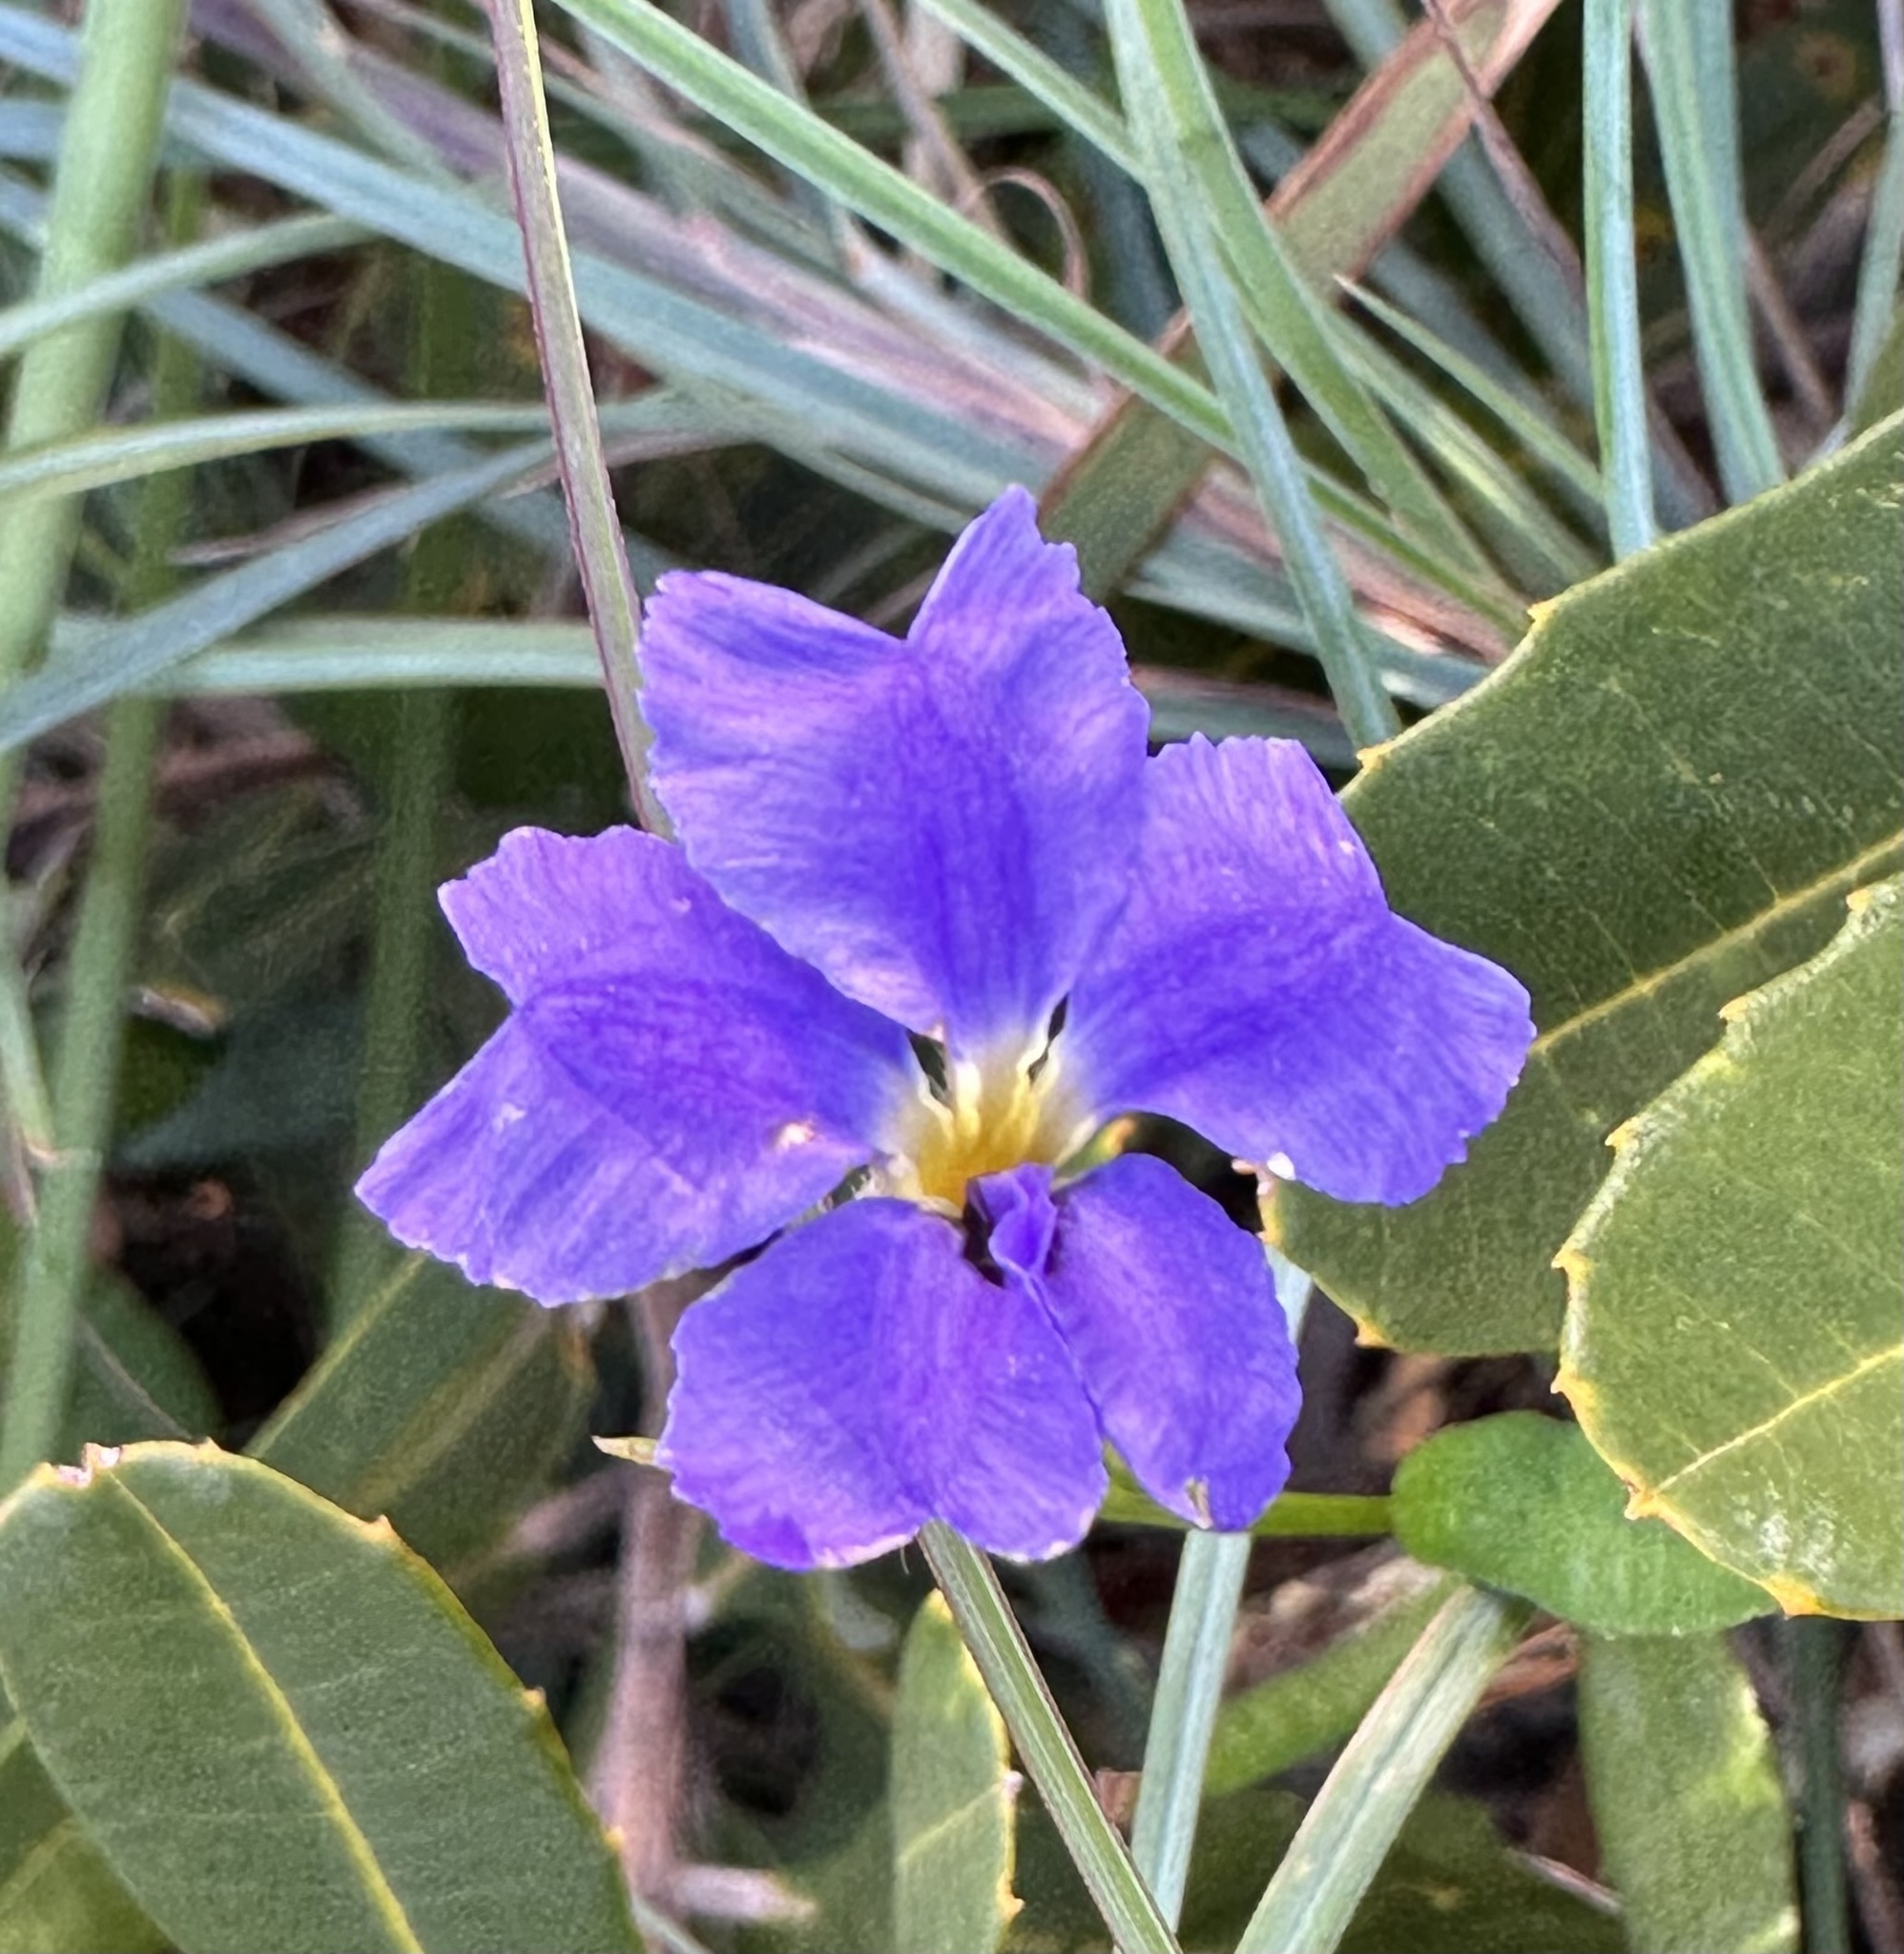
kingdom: Plantae
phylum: Tracheophyta
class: Magnoliopsida
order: Asterales
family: Goodeniaceae
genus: Dampiera
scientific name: Dampiera stricta
